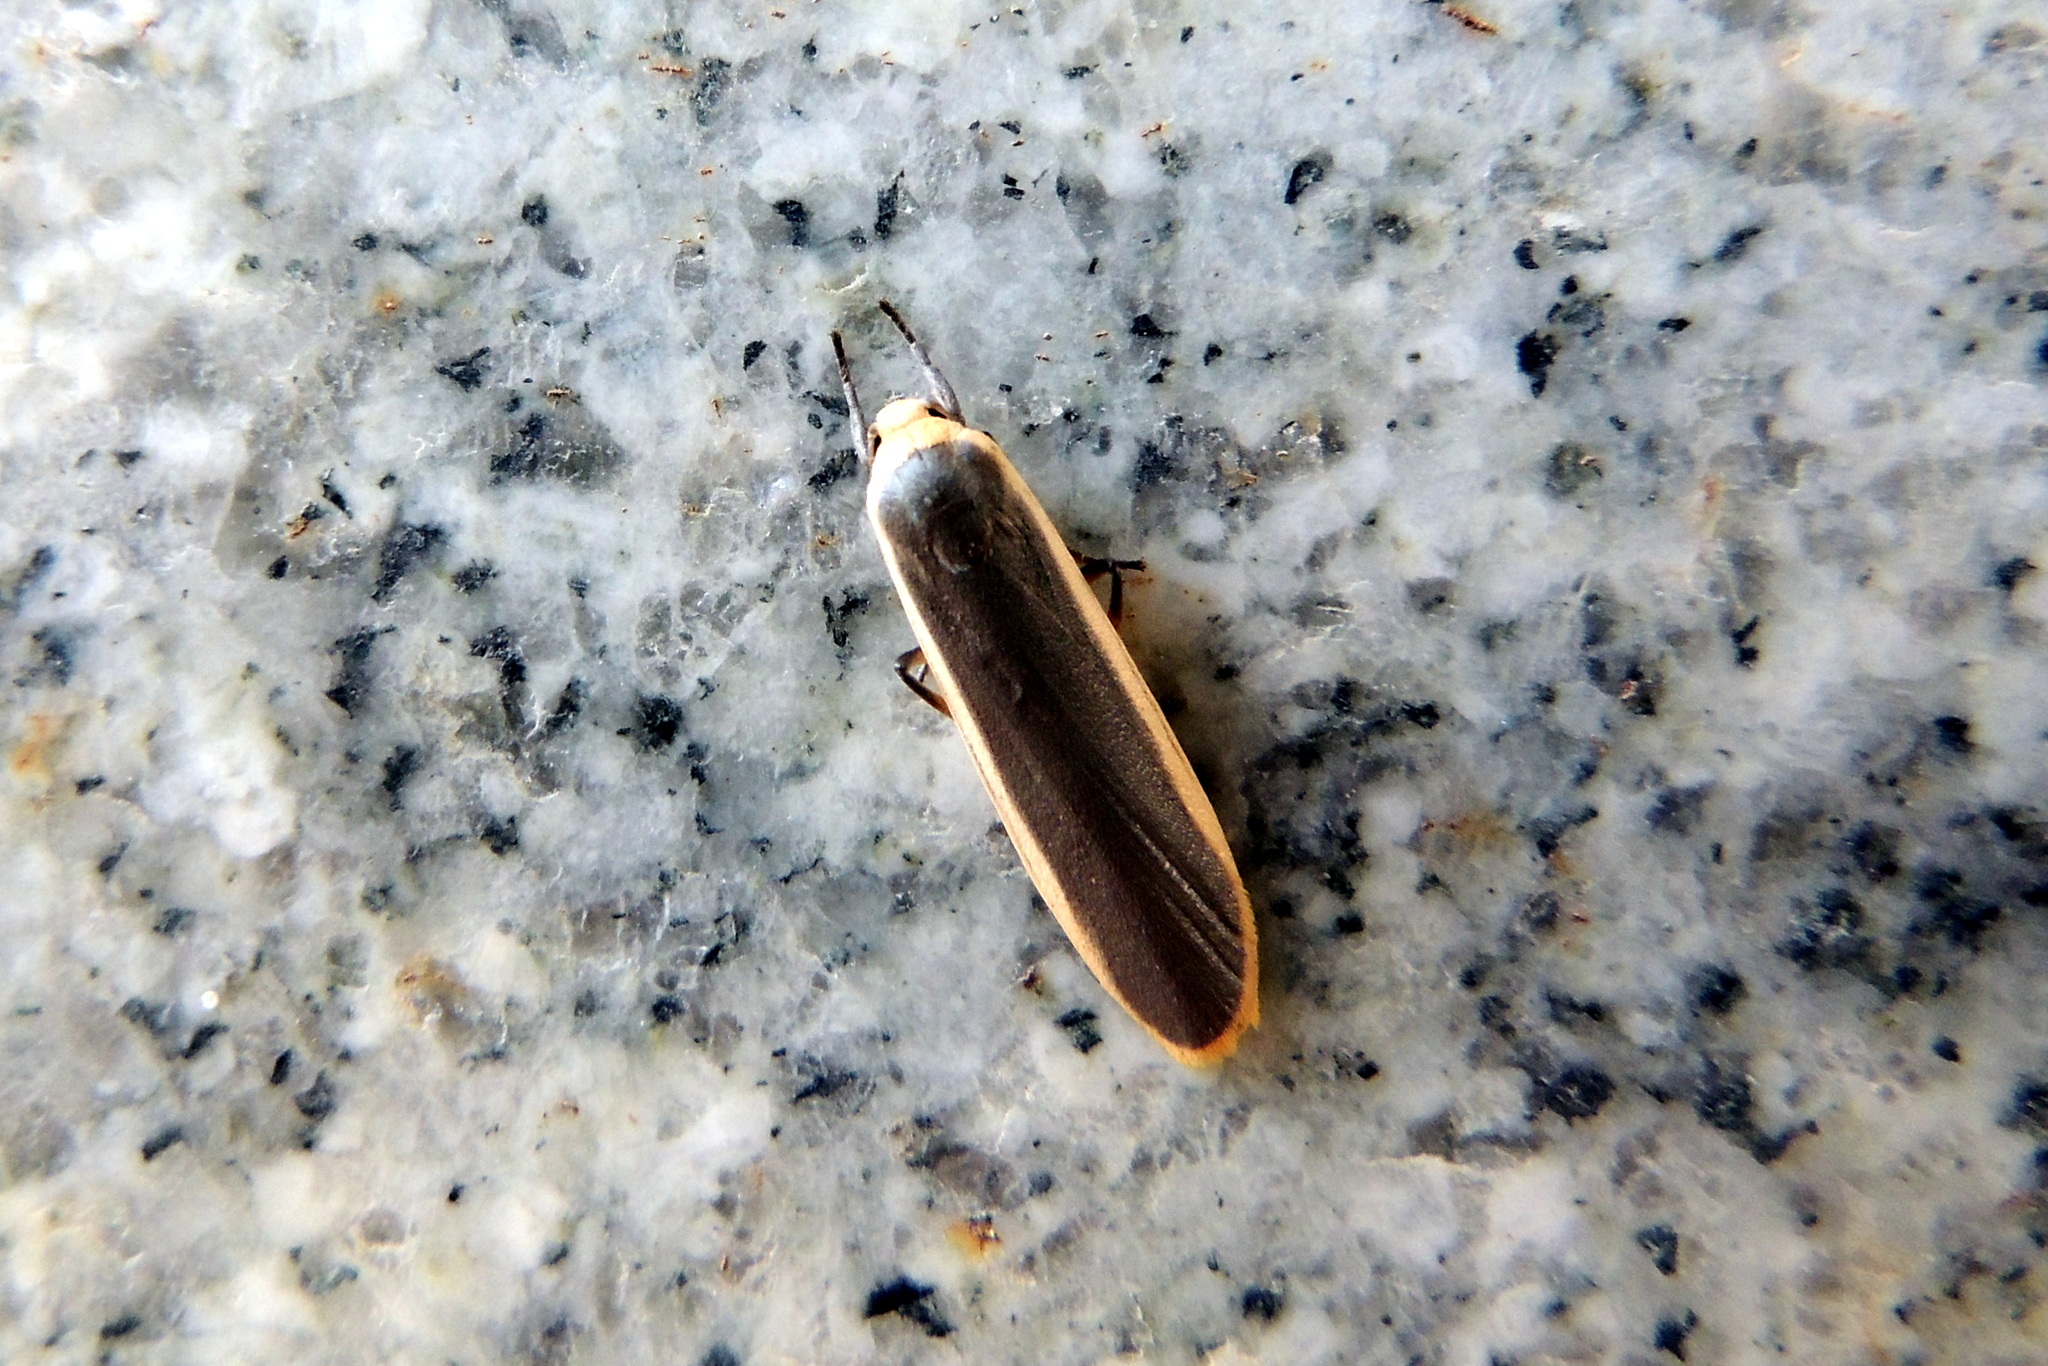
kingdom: Animalia
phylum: Arthropoda
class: Insecta
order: Lepidoptera
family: Erebidae
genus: Brunia
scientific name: Brunia antica
